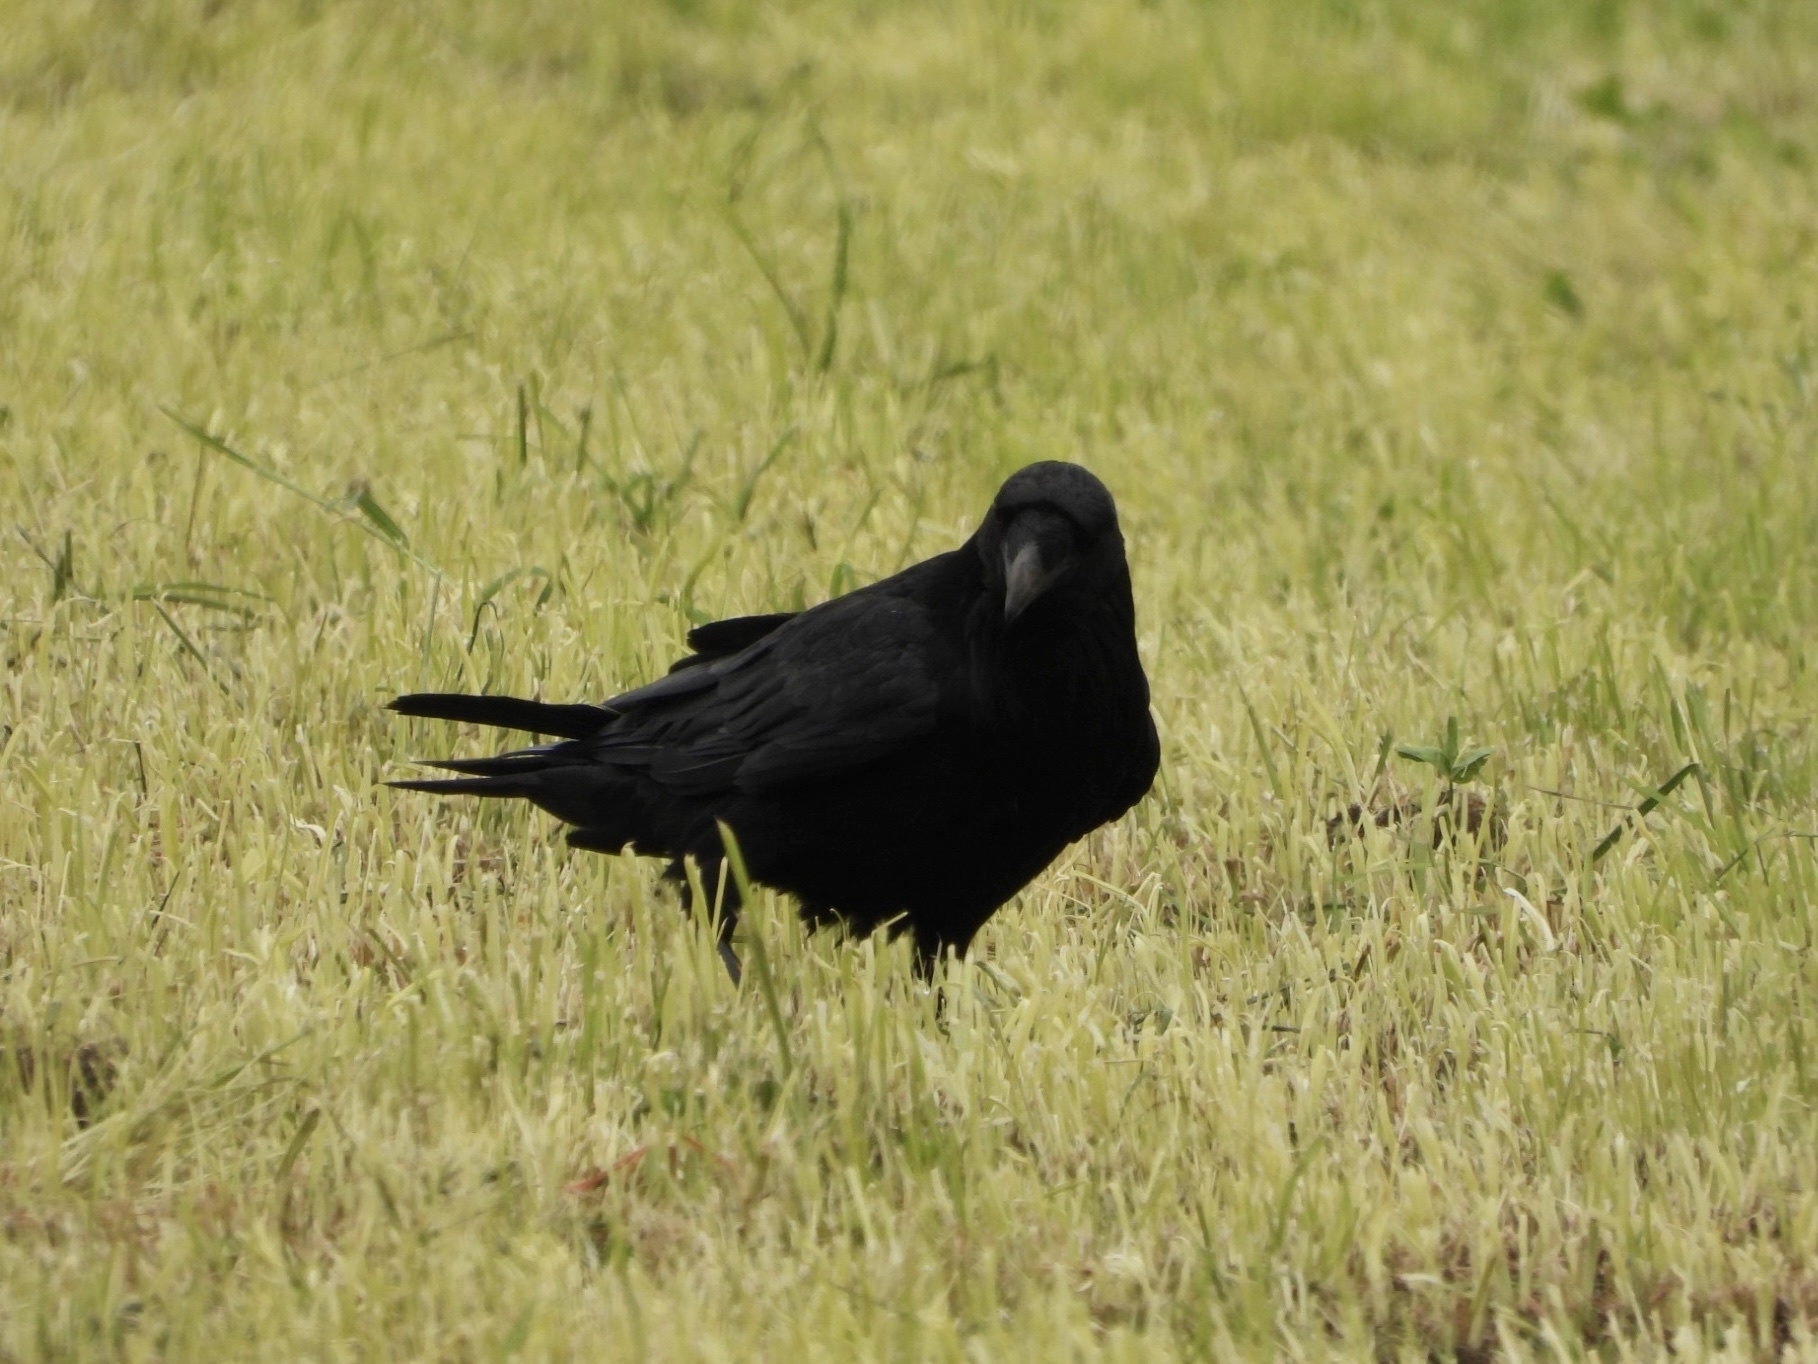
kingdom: Animalia
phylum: Chordata
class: Aves
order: Passeriformes
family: Corvidae
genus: Corvus
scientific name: Corvus corax
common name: Common raven
